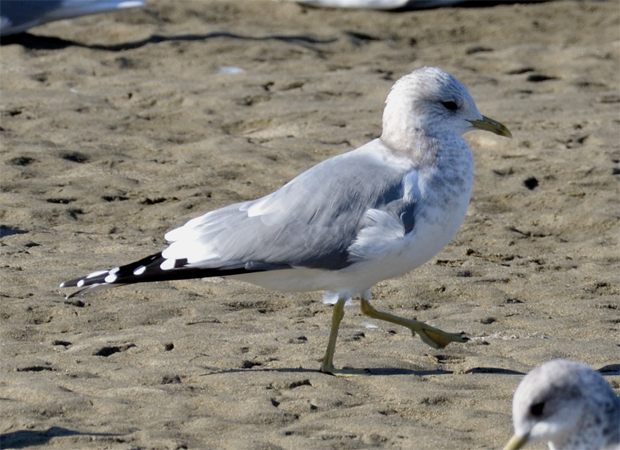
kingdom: Animalia
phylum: Chordata
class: Aves
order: Charadriiformes
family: Laridae
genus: Larus
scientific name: Larus brachyrhynchus
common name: Short-billed gull
